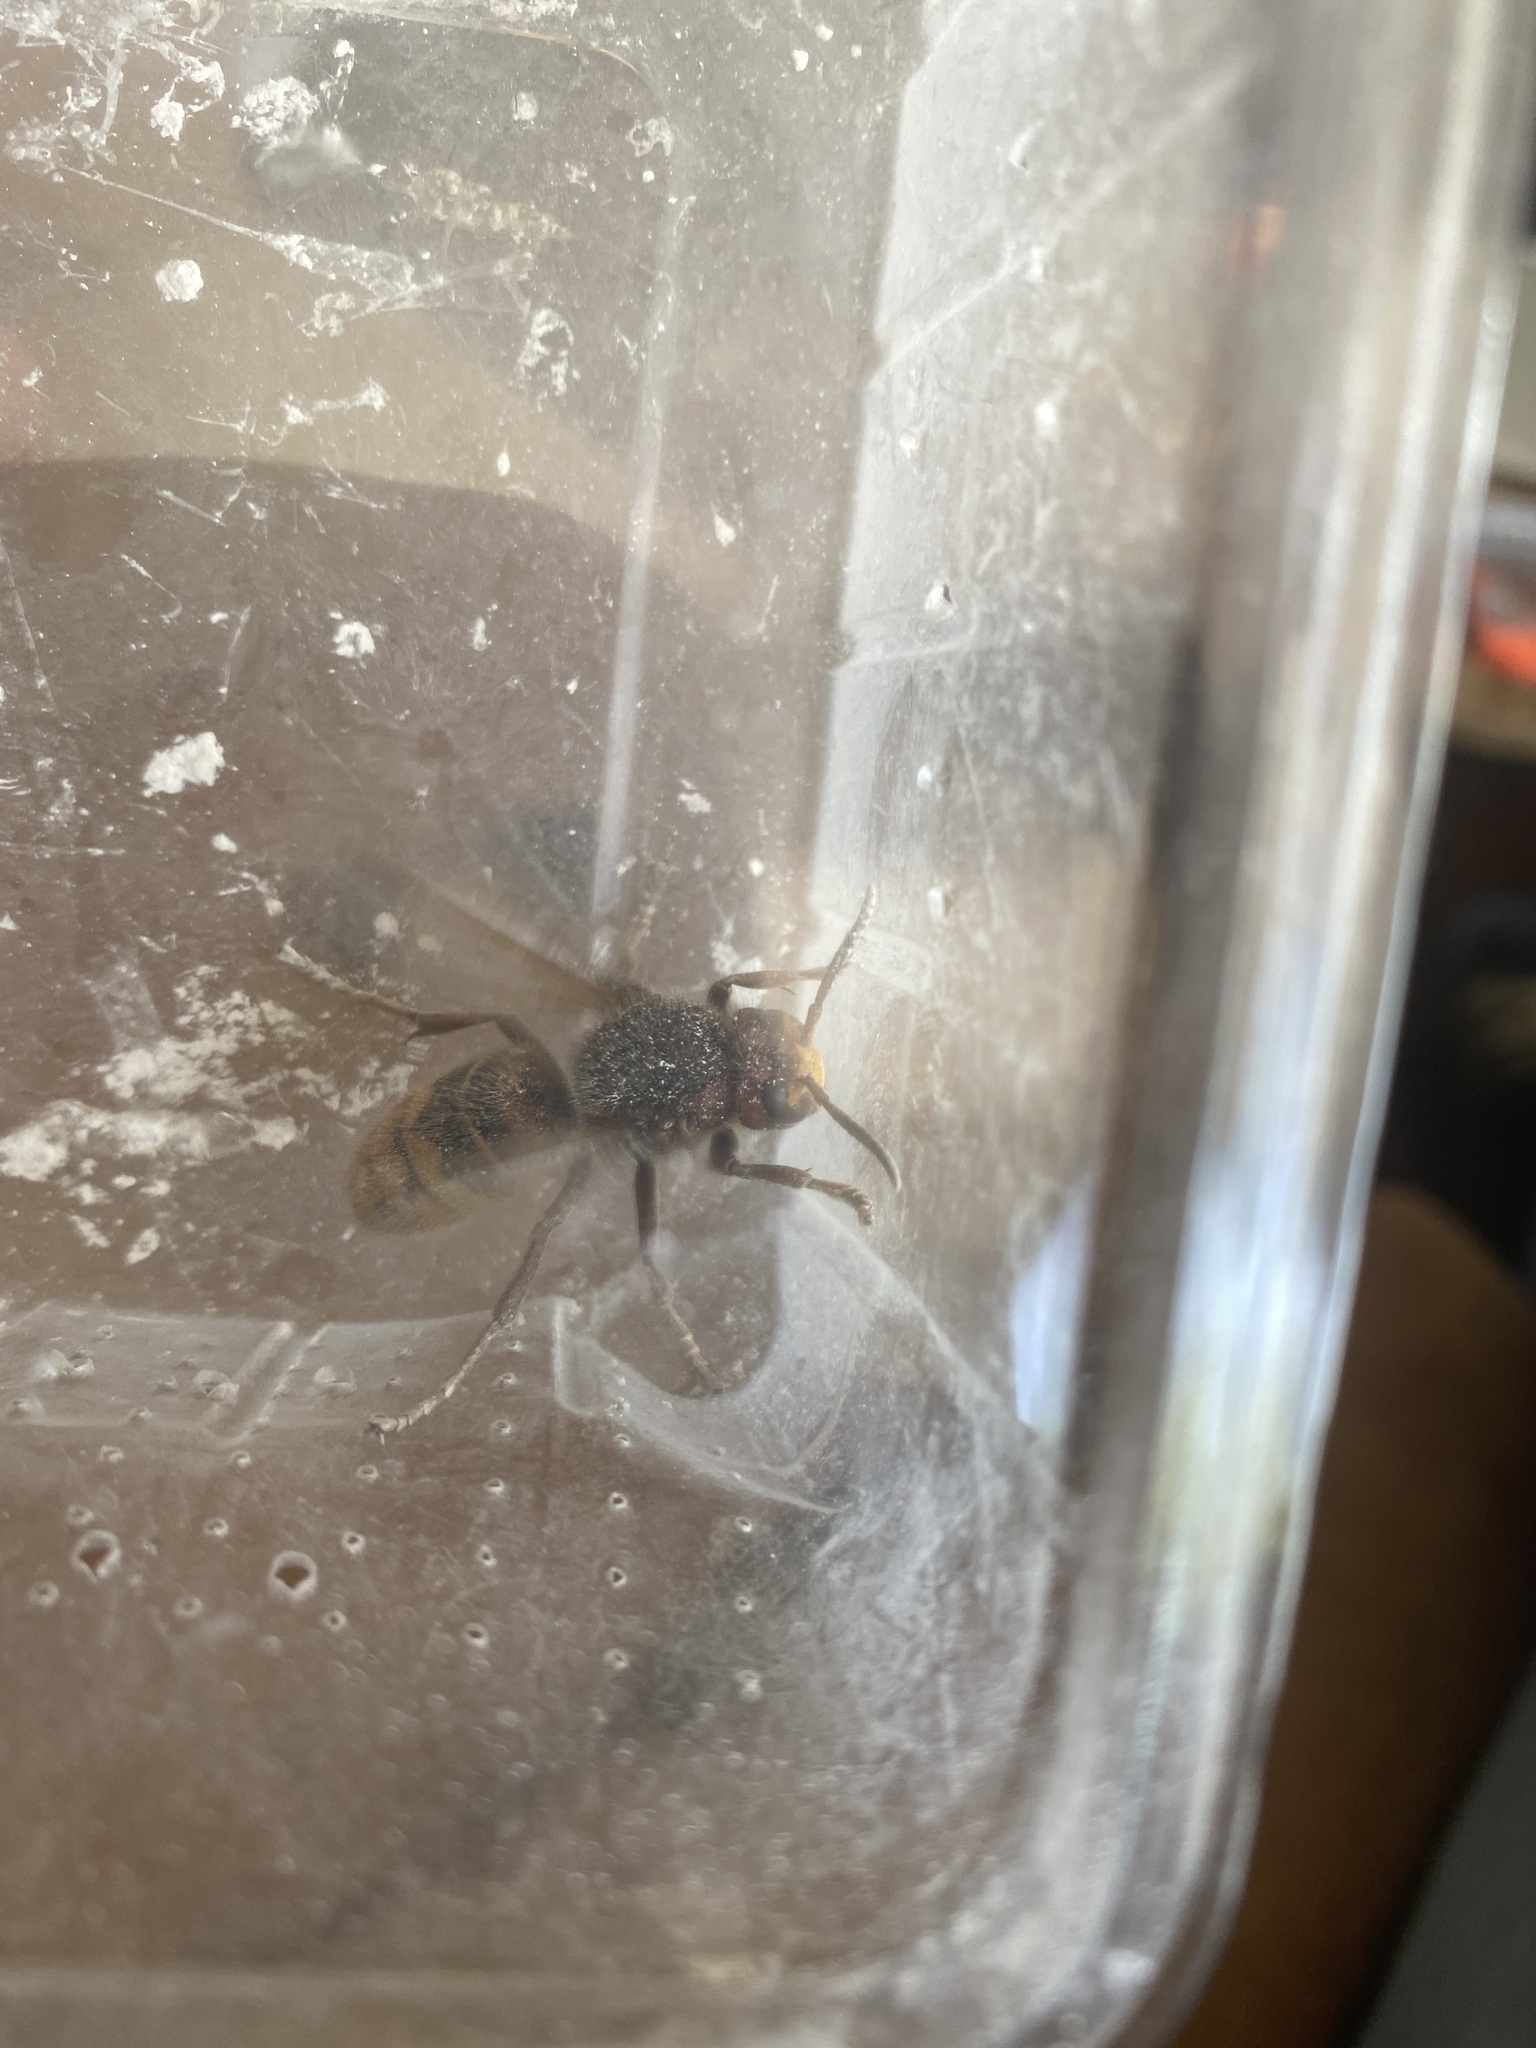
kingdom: Animalia
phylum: Arthropoda
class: Insecta
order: Hymenoptera
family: Vespidae
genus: Vespa
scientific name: Vespa crabro
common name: Hornet
